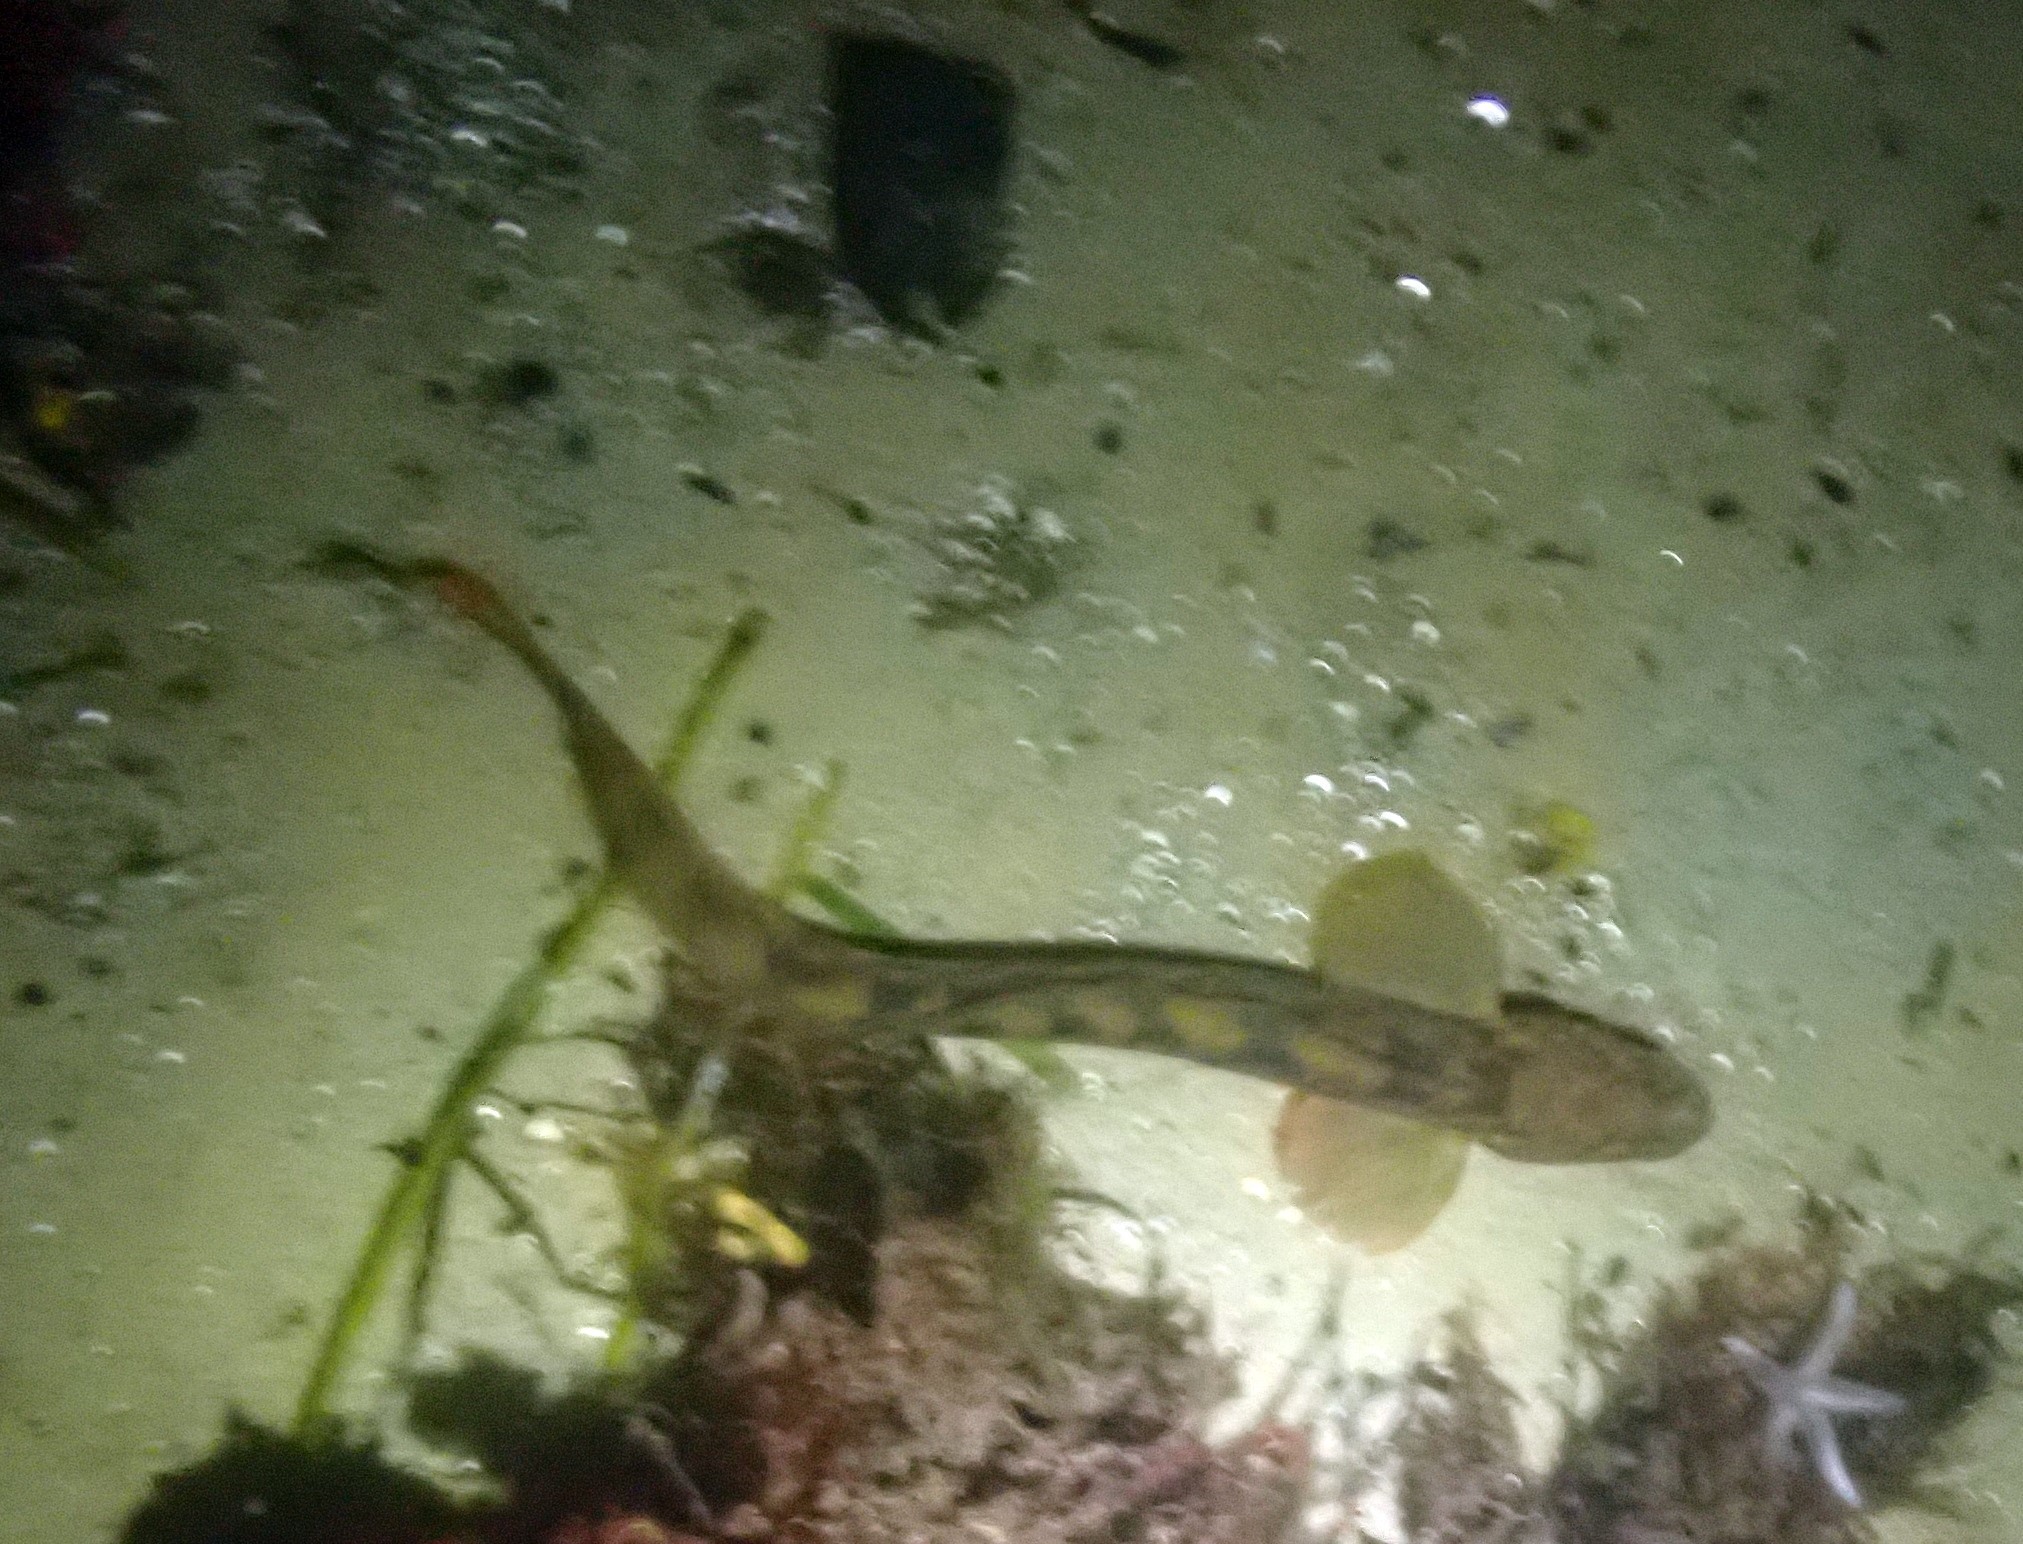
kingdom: Animalia
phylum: Chordata
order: Perciformes
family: Zoarcidae
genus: Zoarces
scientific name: Zoarces viviparus
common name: Viviparous blenny
